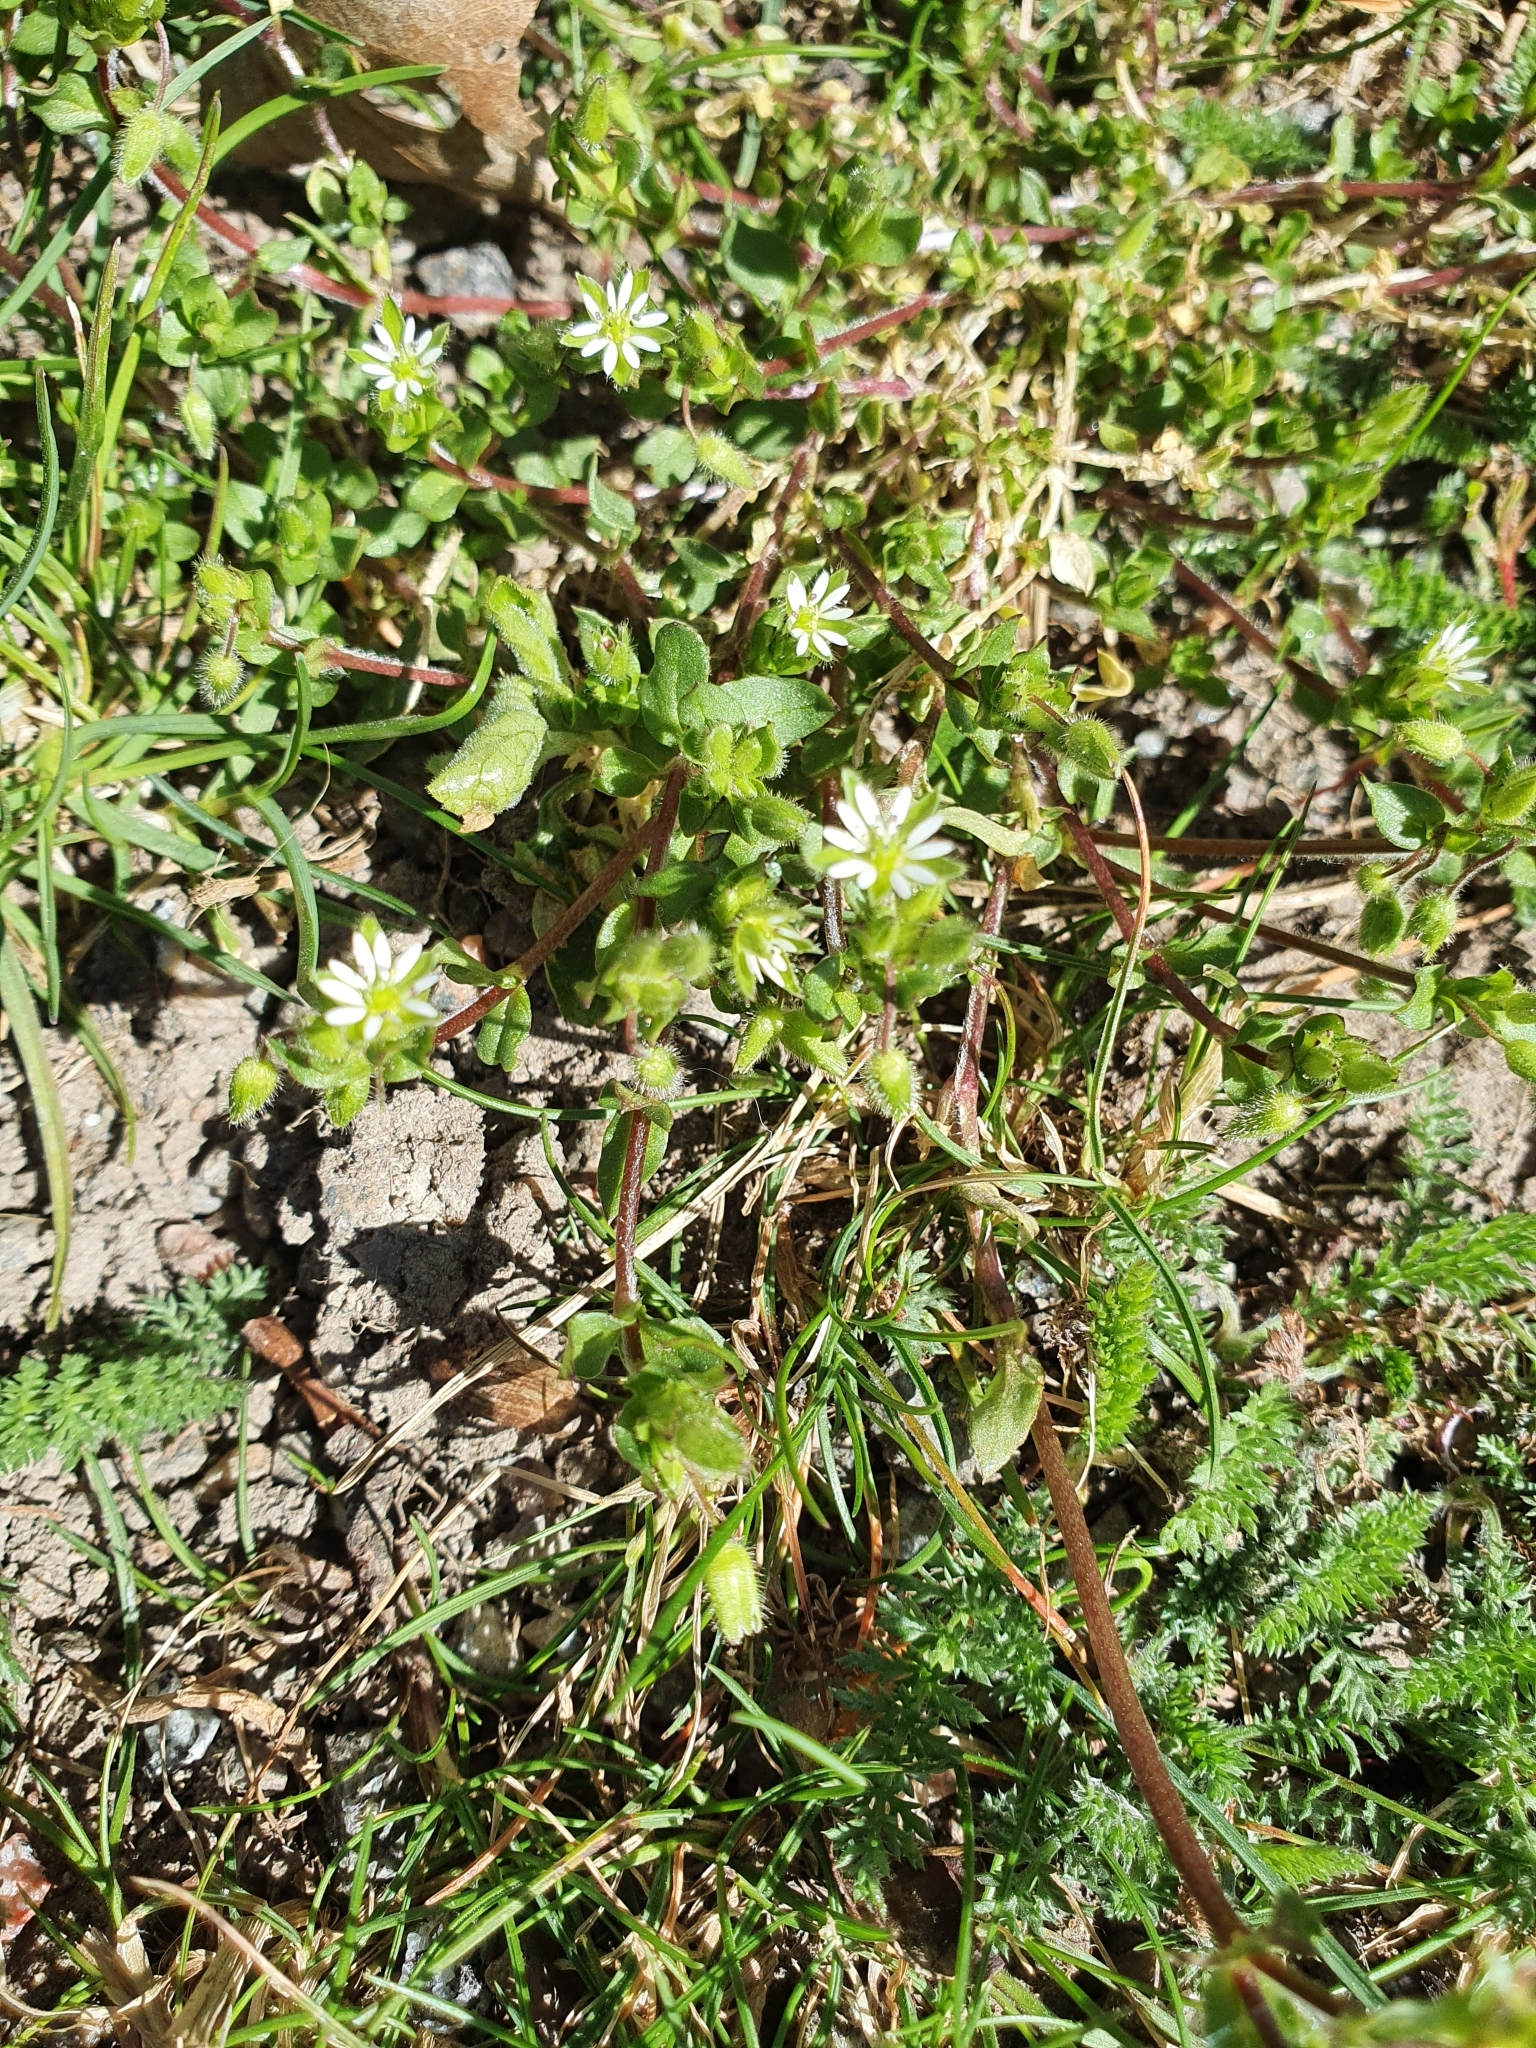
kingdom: Plantae
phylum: Tracheophyta
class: Magnoliopsida
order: Caryophyllales
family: Caryophyllaceae
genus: Stellaria
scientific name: Stellaria media
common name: Common chickweed
